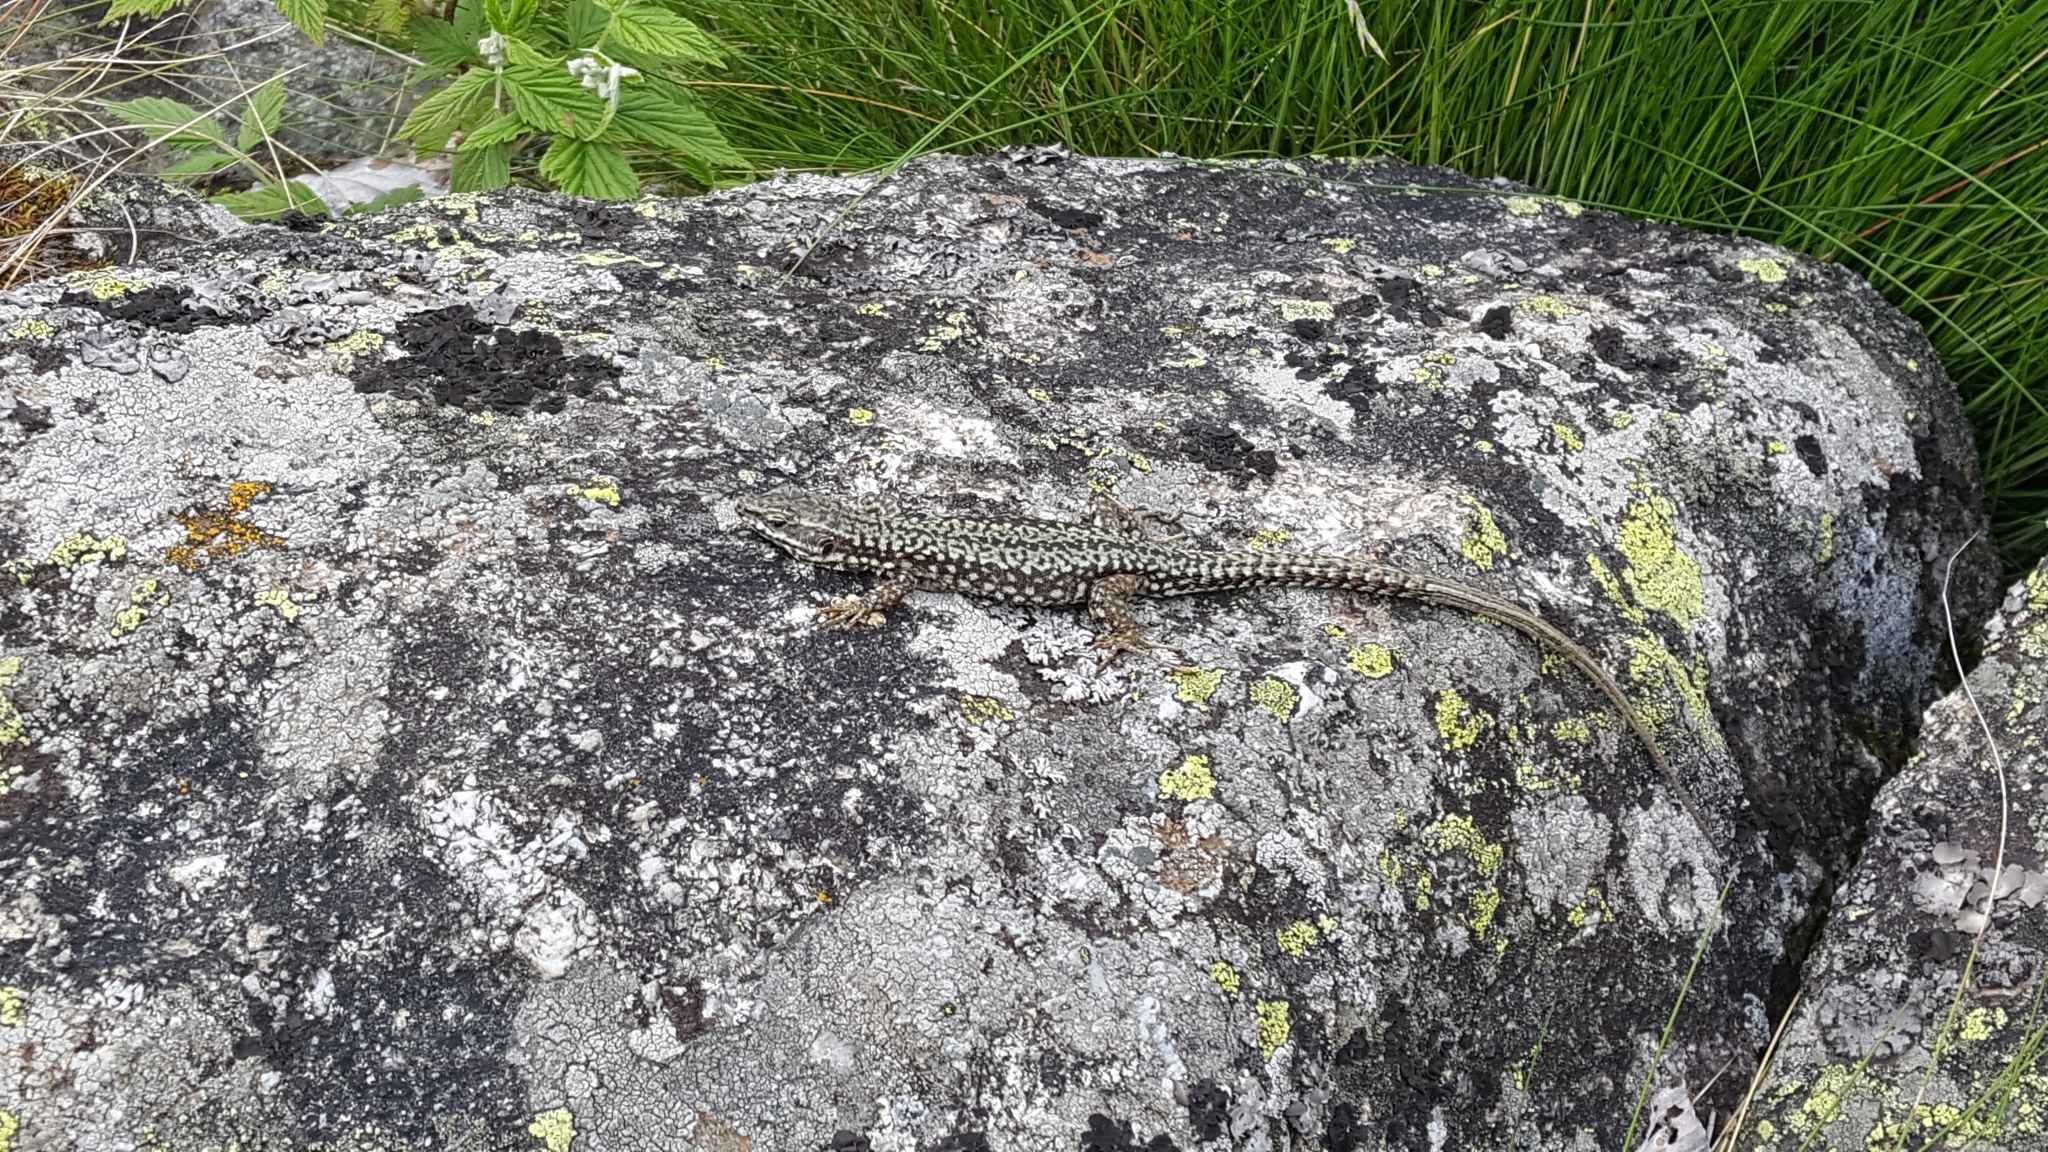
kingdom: Animalia
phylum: Chordata
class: Squamata
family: Lacertidae
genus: Podarcis
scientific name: Podarcis muralis
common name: Common wall lizard
